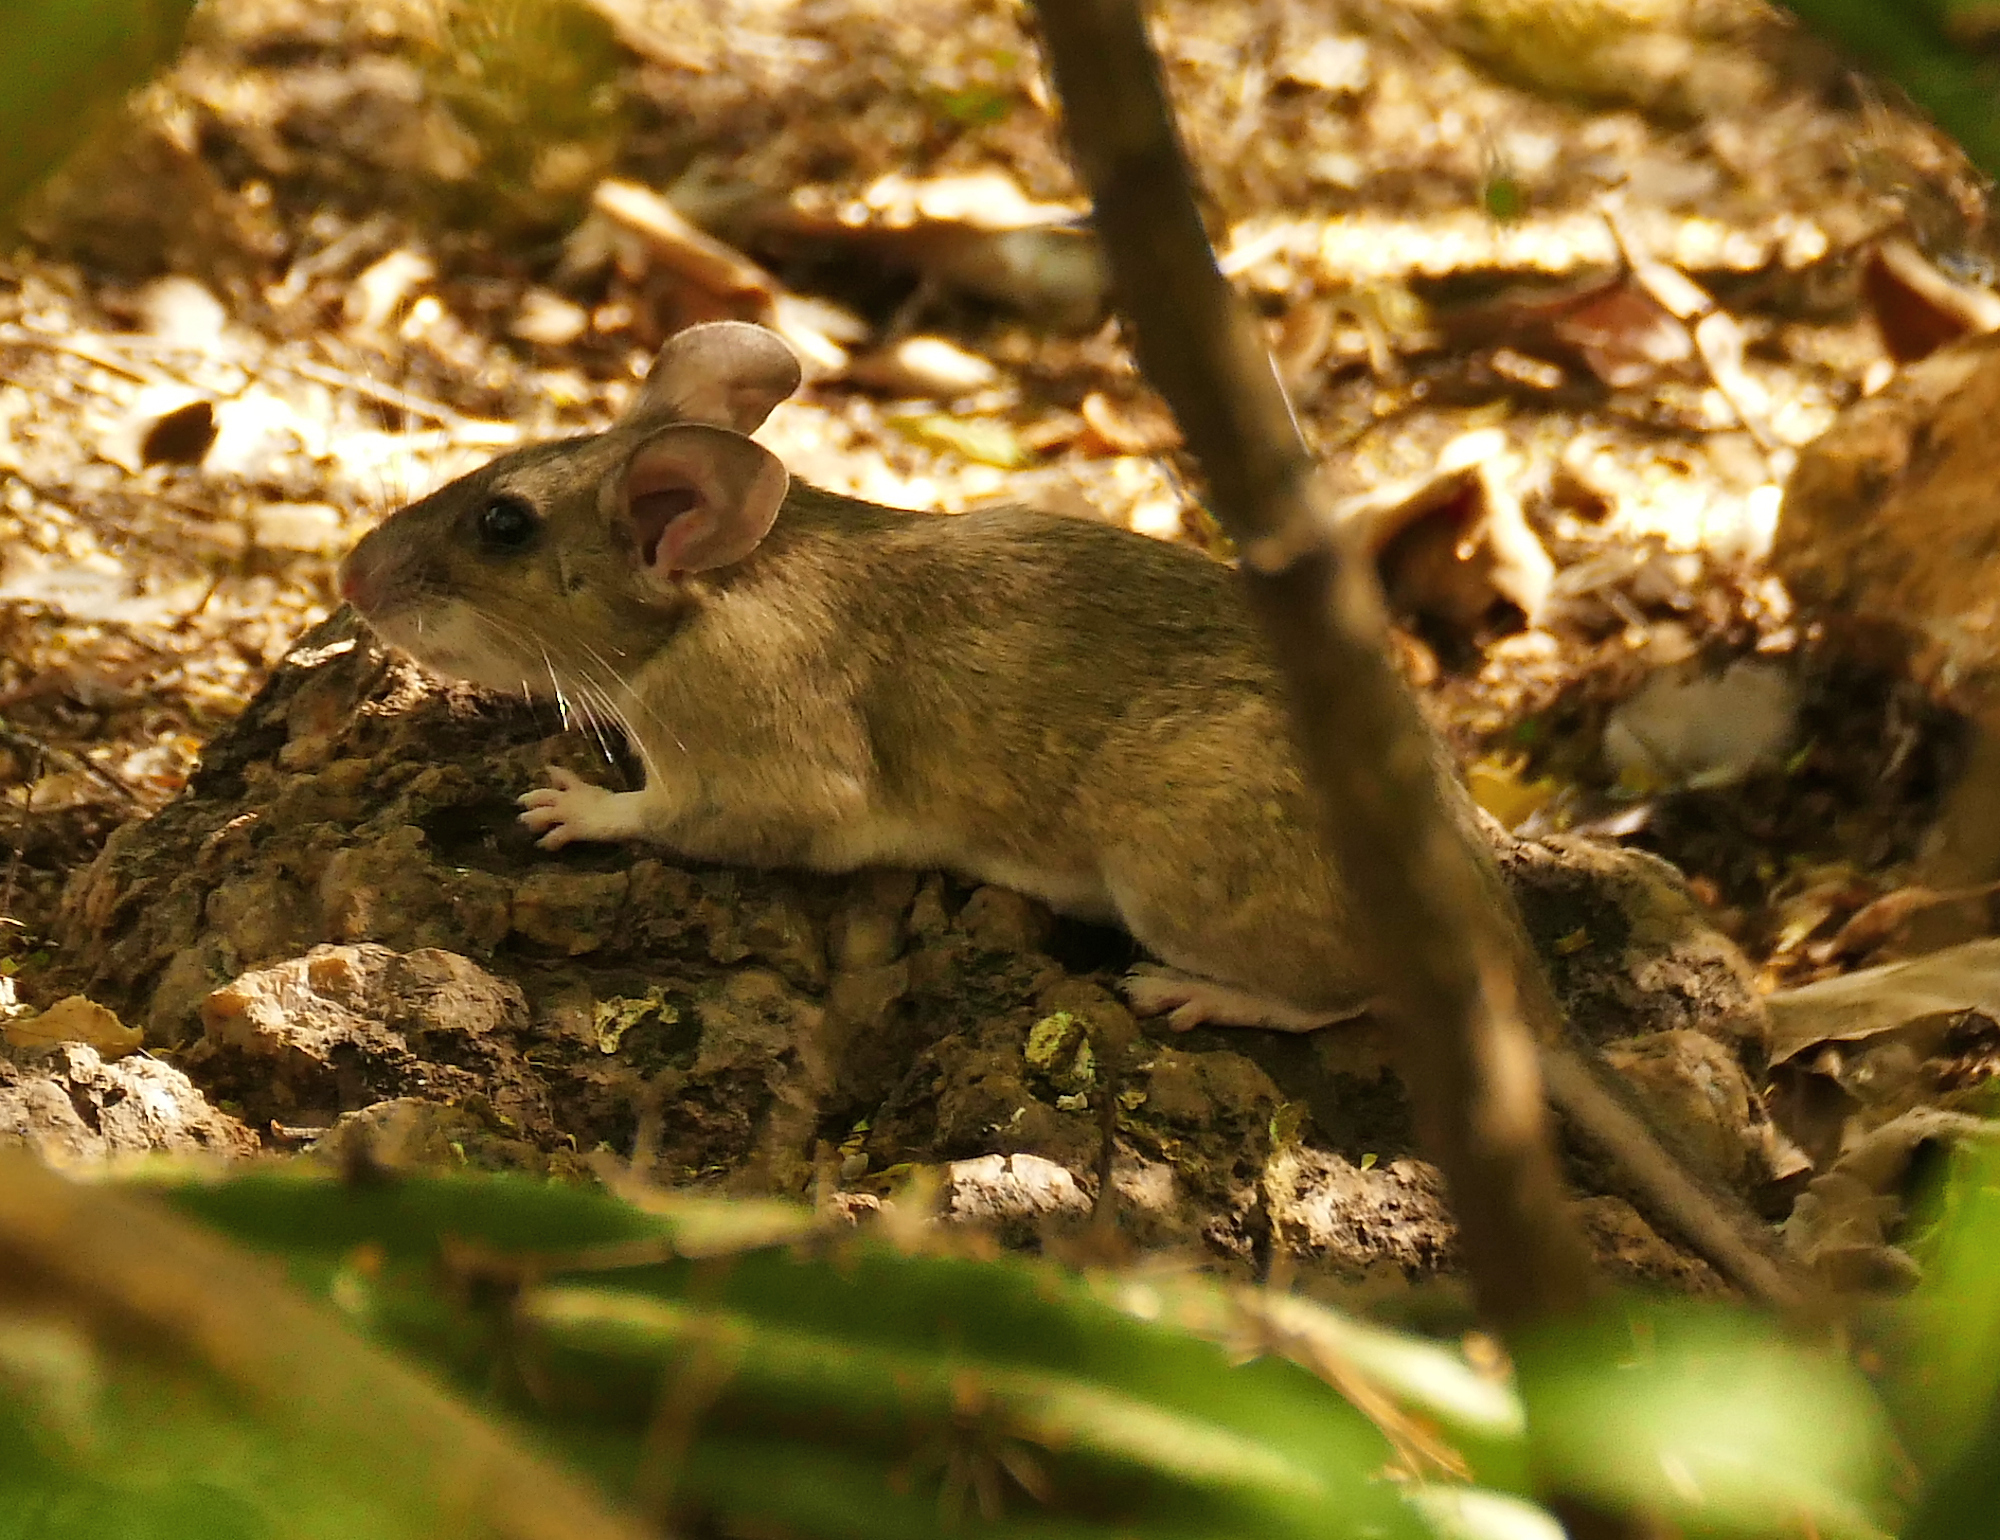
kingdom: Animalia
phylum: Chordata
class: Mammalia
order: Rodentia
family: Cricetidae
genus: Neotoma
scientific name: Neotoma albigula
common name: White-throated woodrat
